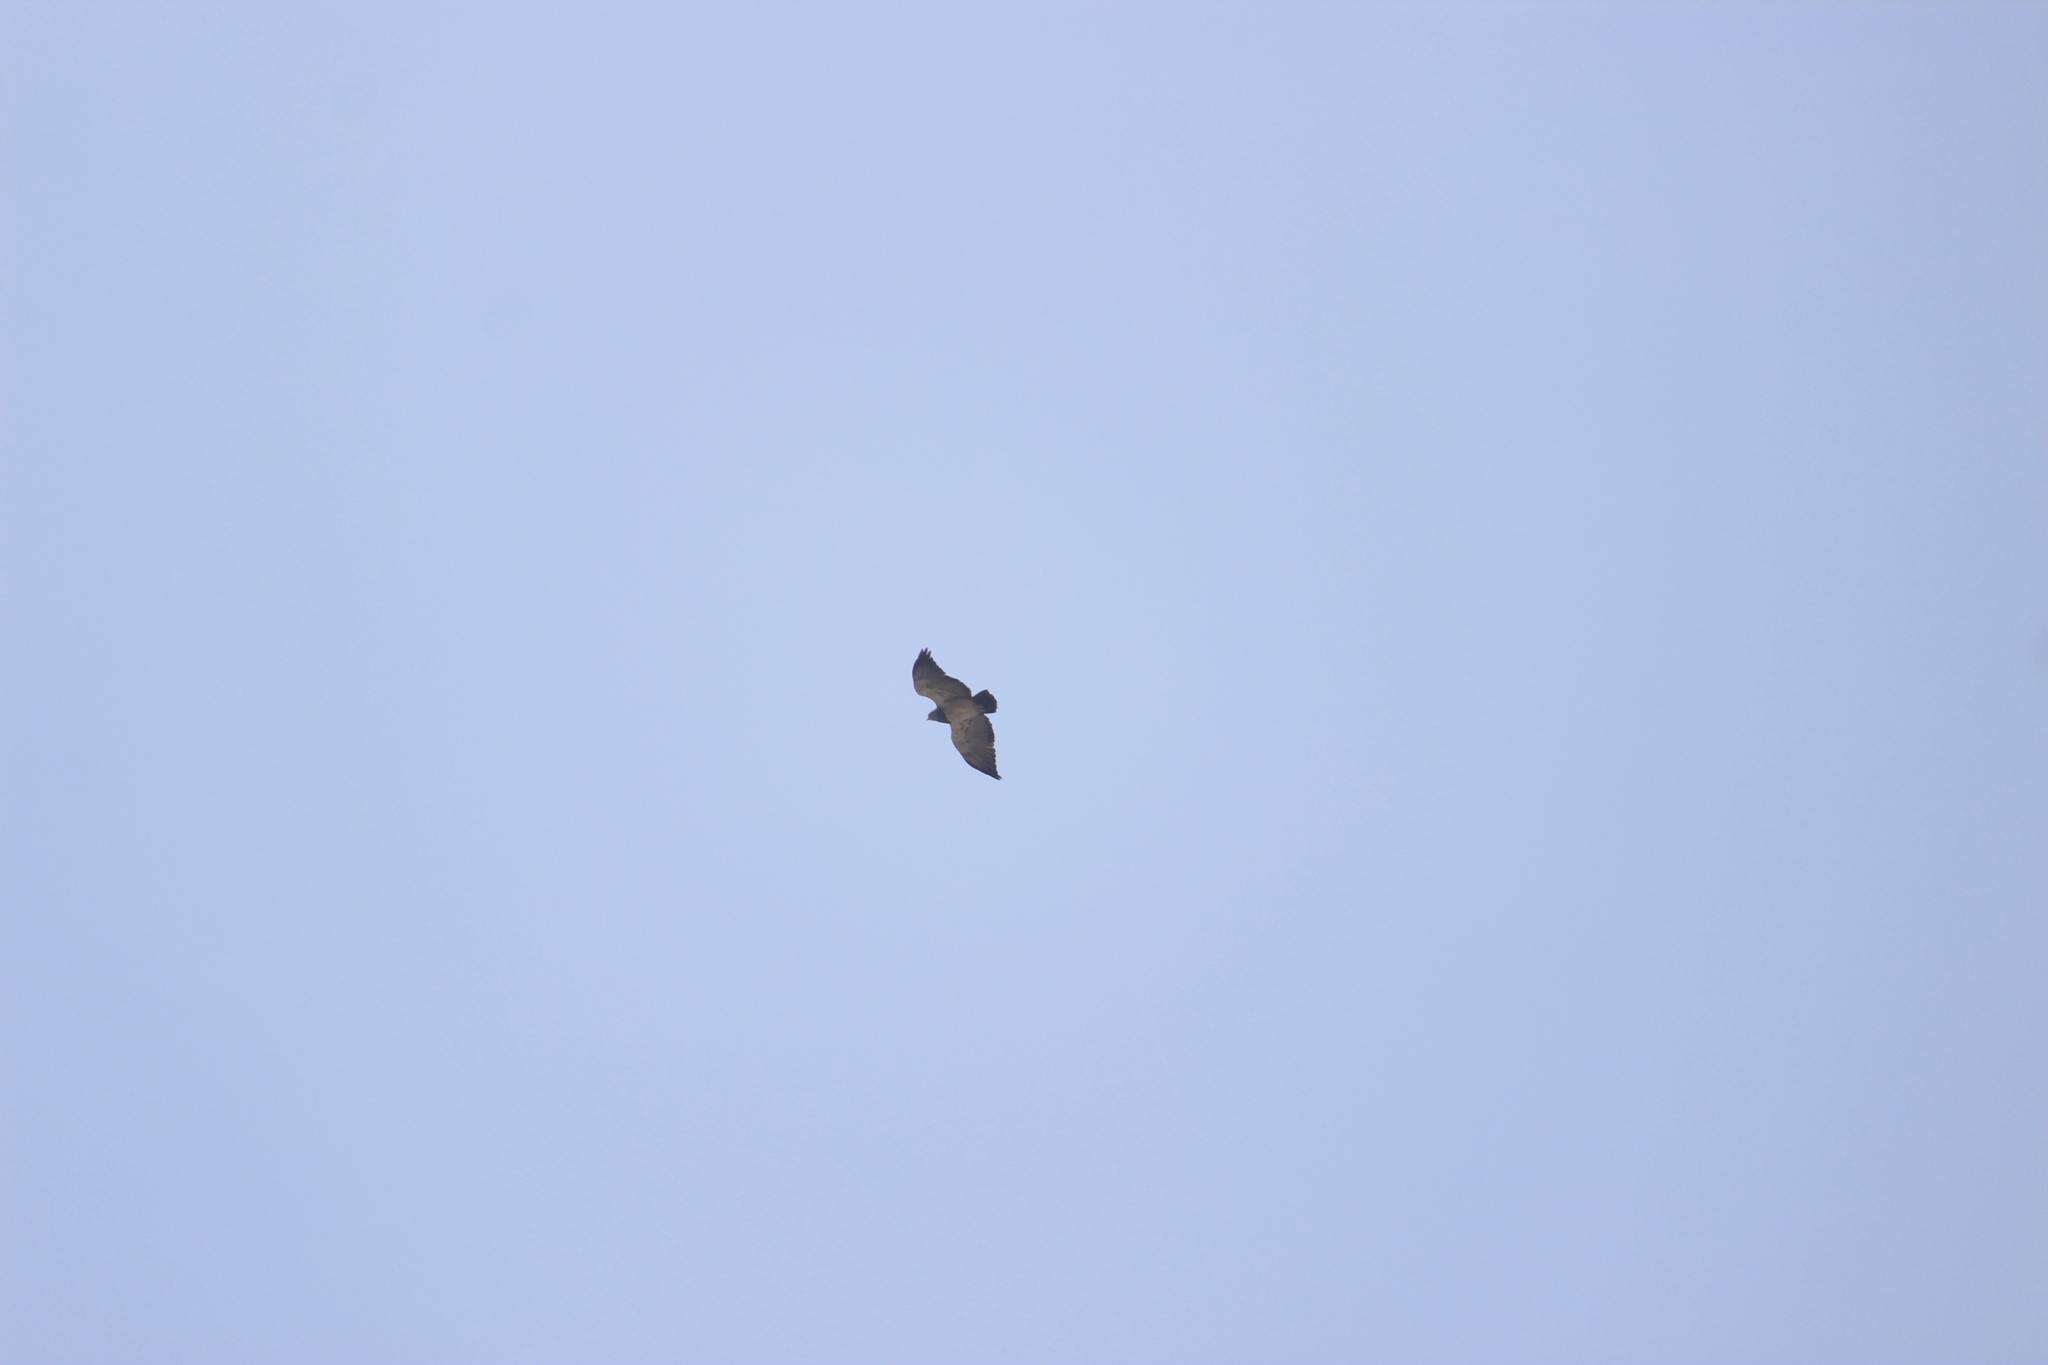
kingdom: Animalia
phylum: Chordata
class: Aves
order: Accipitriformes
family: Accipitridae
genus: Geranoaetus
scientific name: Geranoaetus melanoleucus
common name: Black-chested buzzard-eagle
